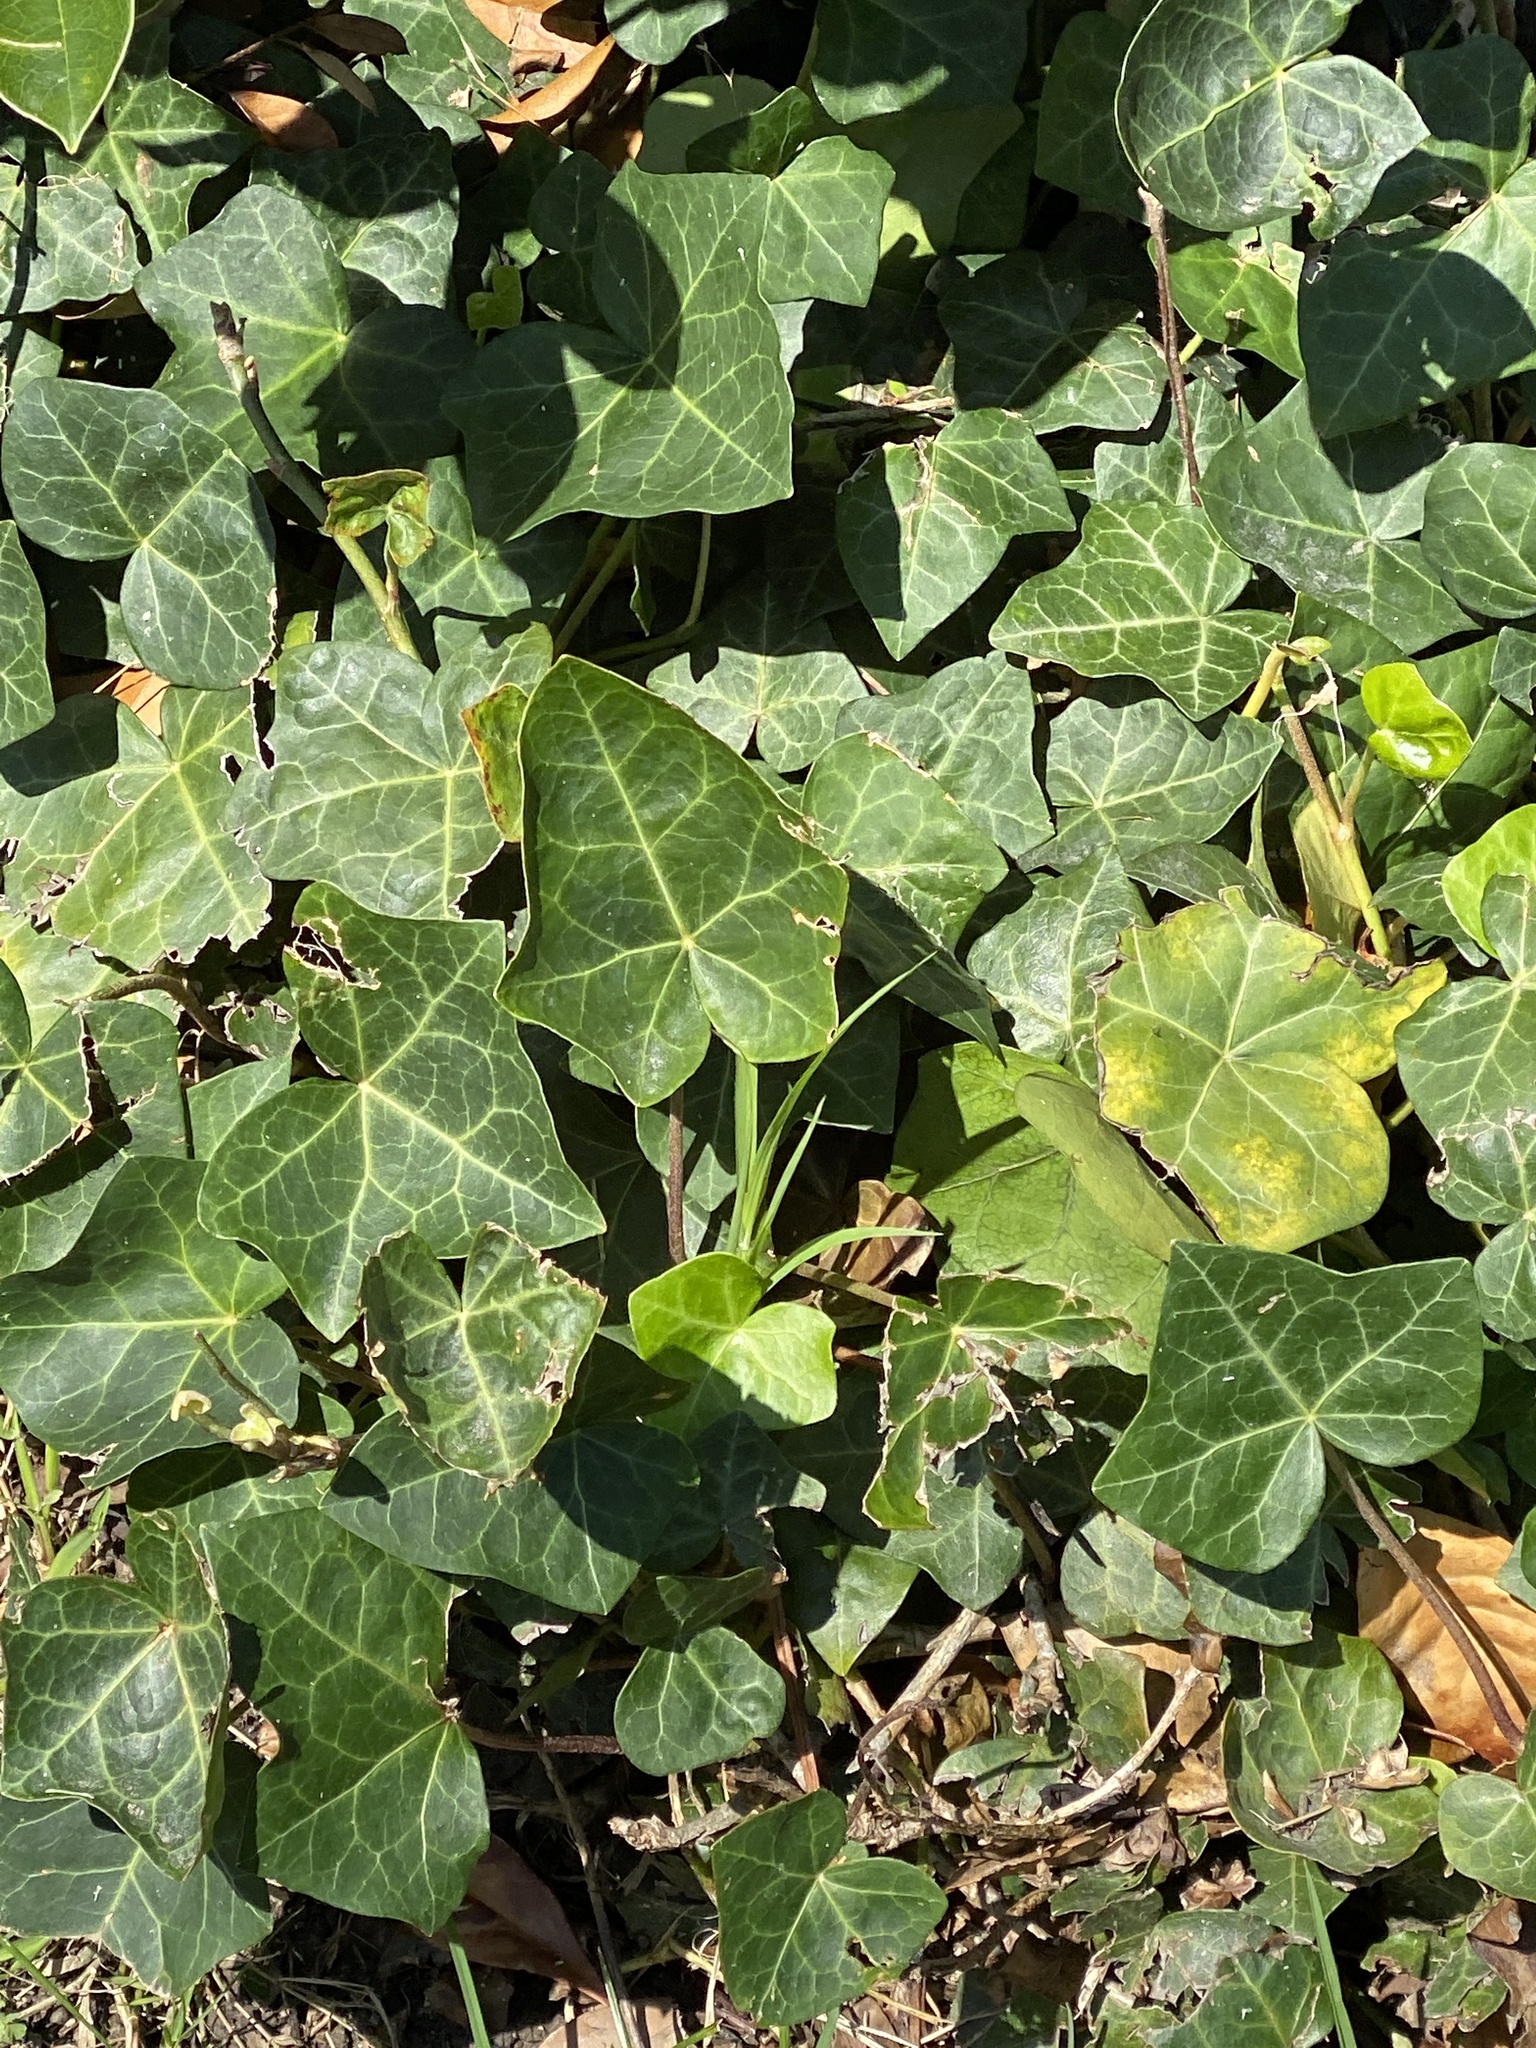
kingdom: Plantae
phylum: Tracheophyta
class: Magnoliopsida
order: Apiales
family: Araliaceae
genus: Hedera
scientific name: Hedera helix
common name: Ivy
